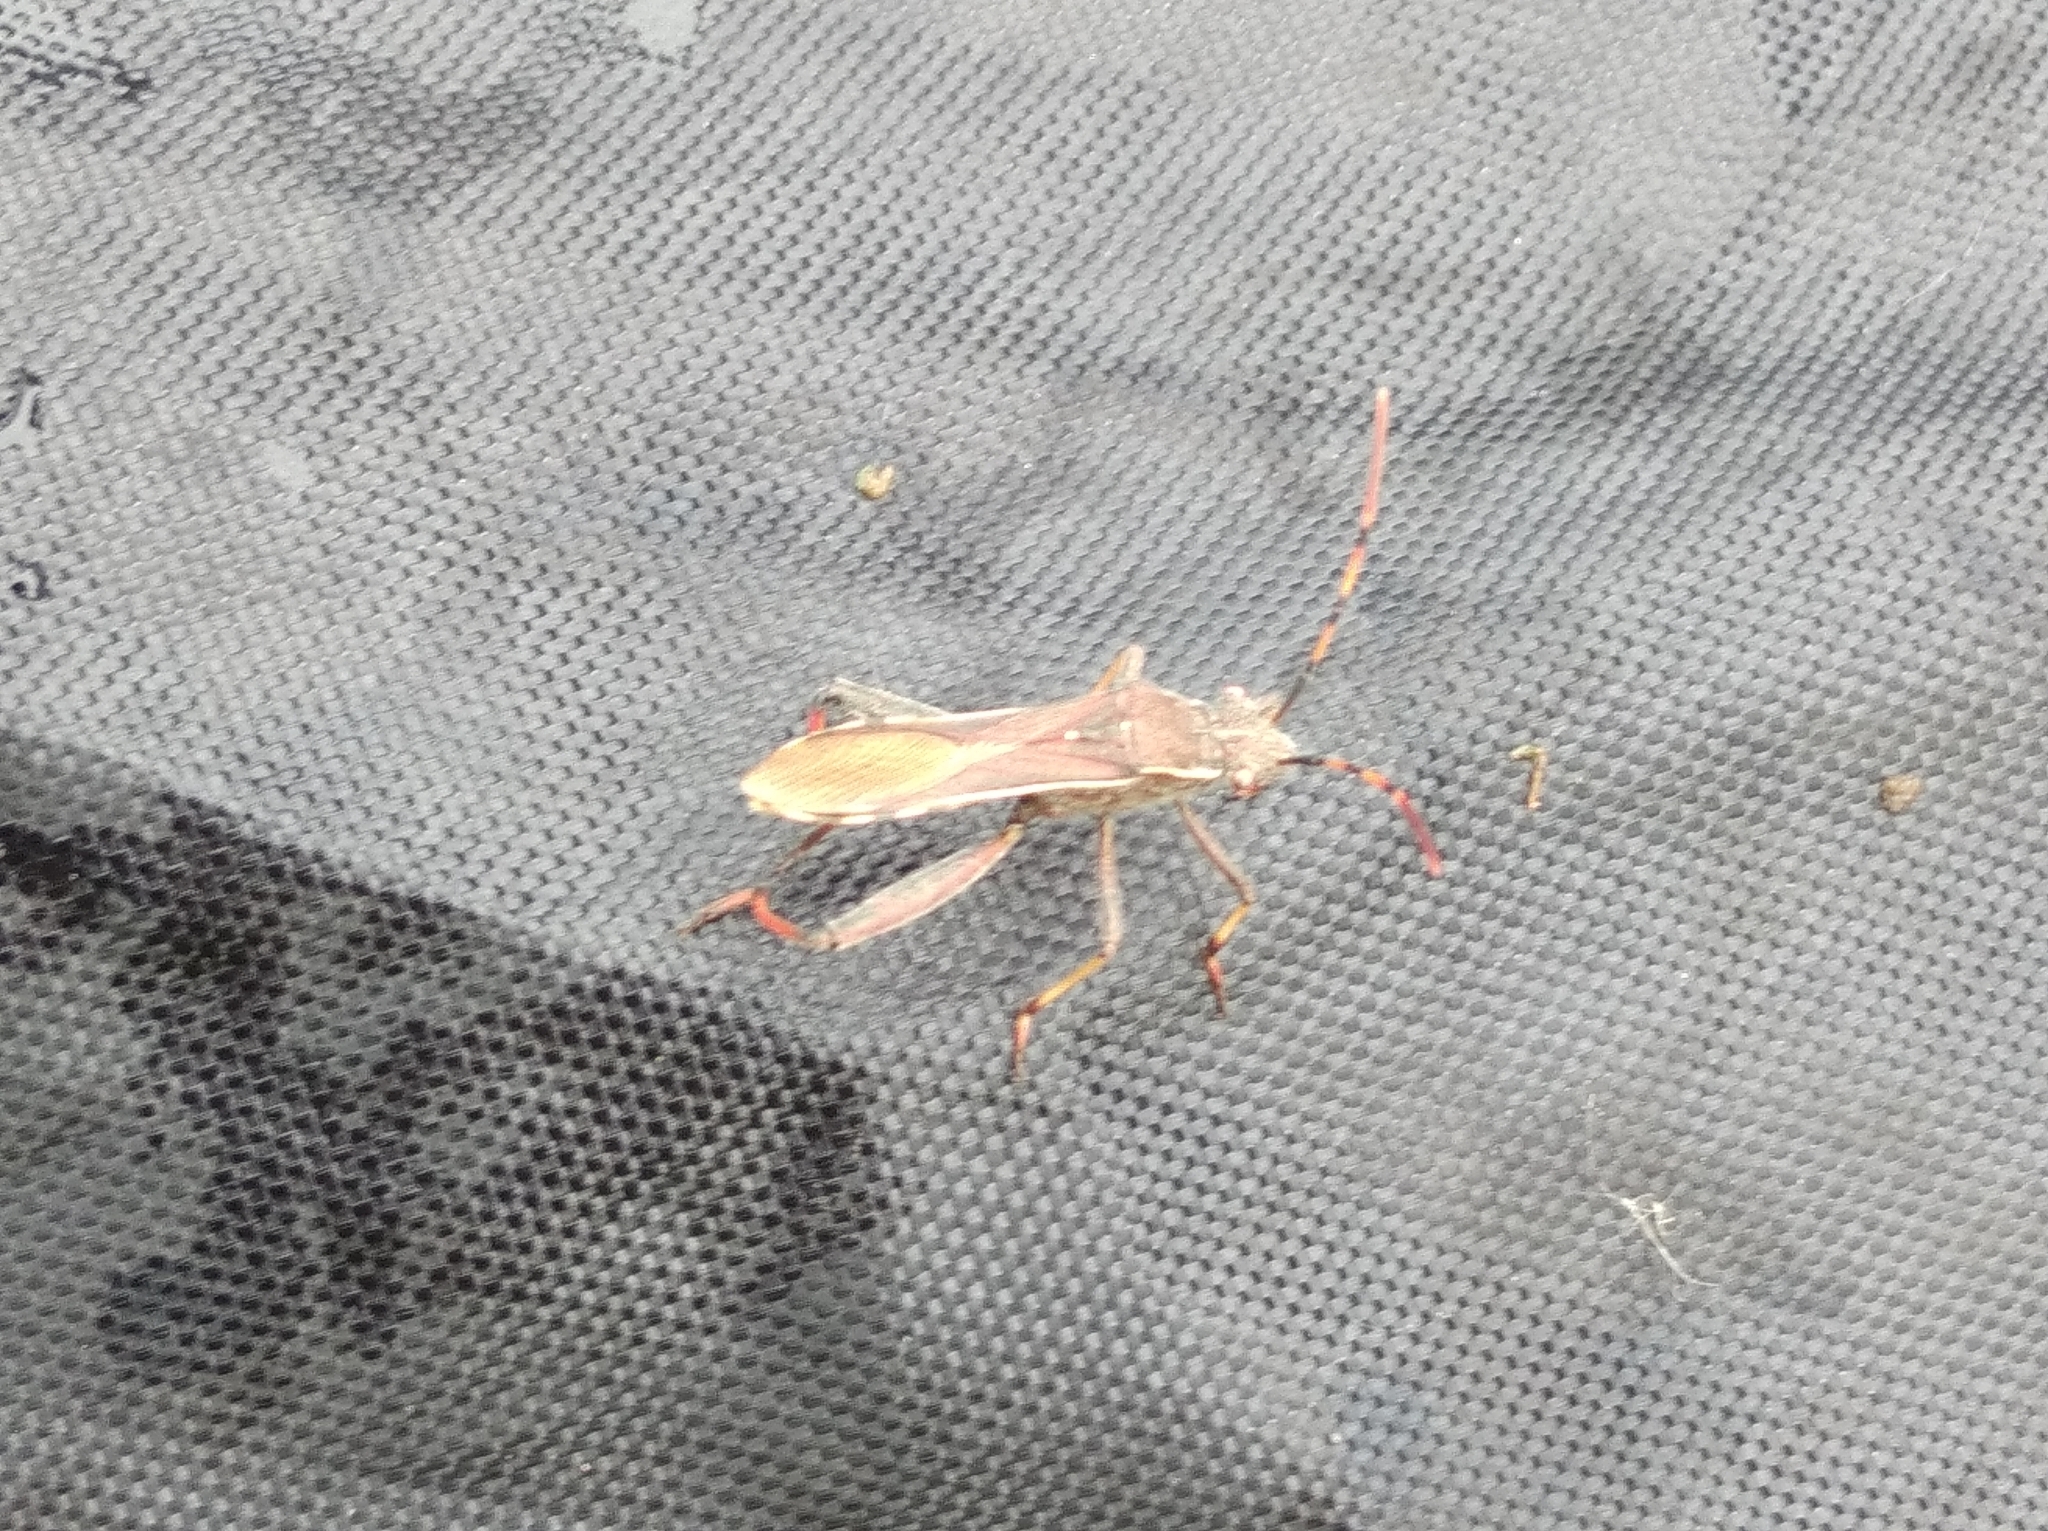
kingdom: Animalia
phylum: Arthropoda
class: Insecta
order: Hemiptera
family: Alydidae
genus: Camptopus
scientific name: Camptopus lateralis
